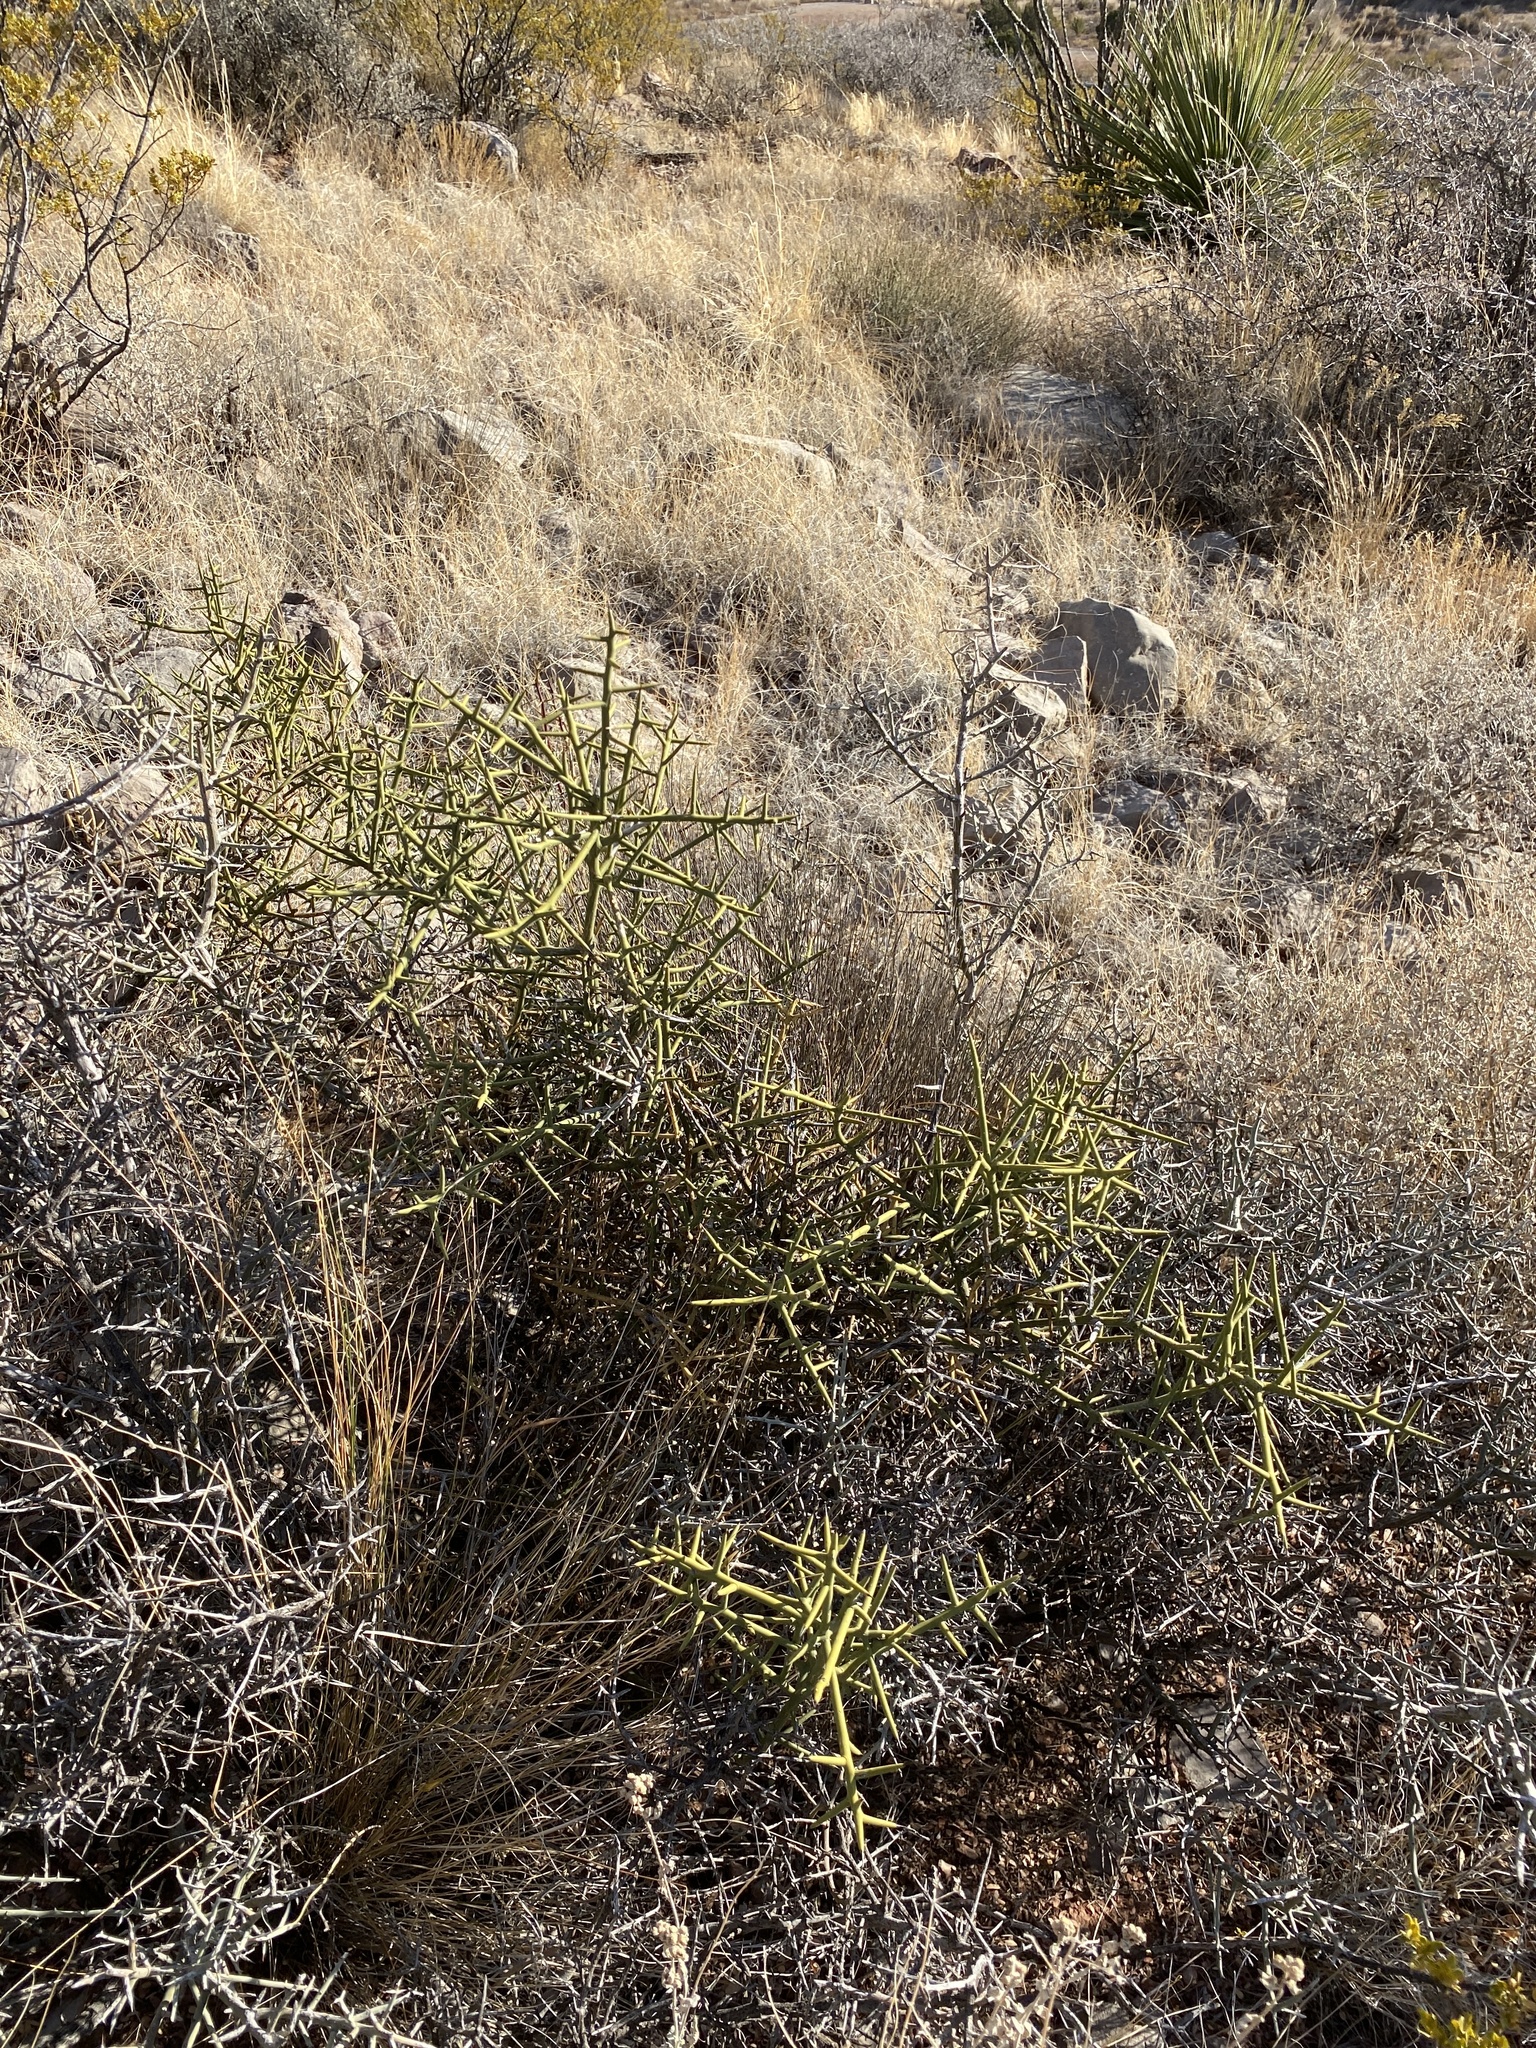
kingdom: Plantae
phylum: Tracheophyta
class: Magnoliopsida
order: Brassicales
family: Koeberliniaceae
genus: Koeberlinia
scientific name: Koeberlinia spinosa
